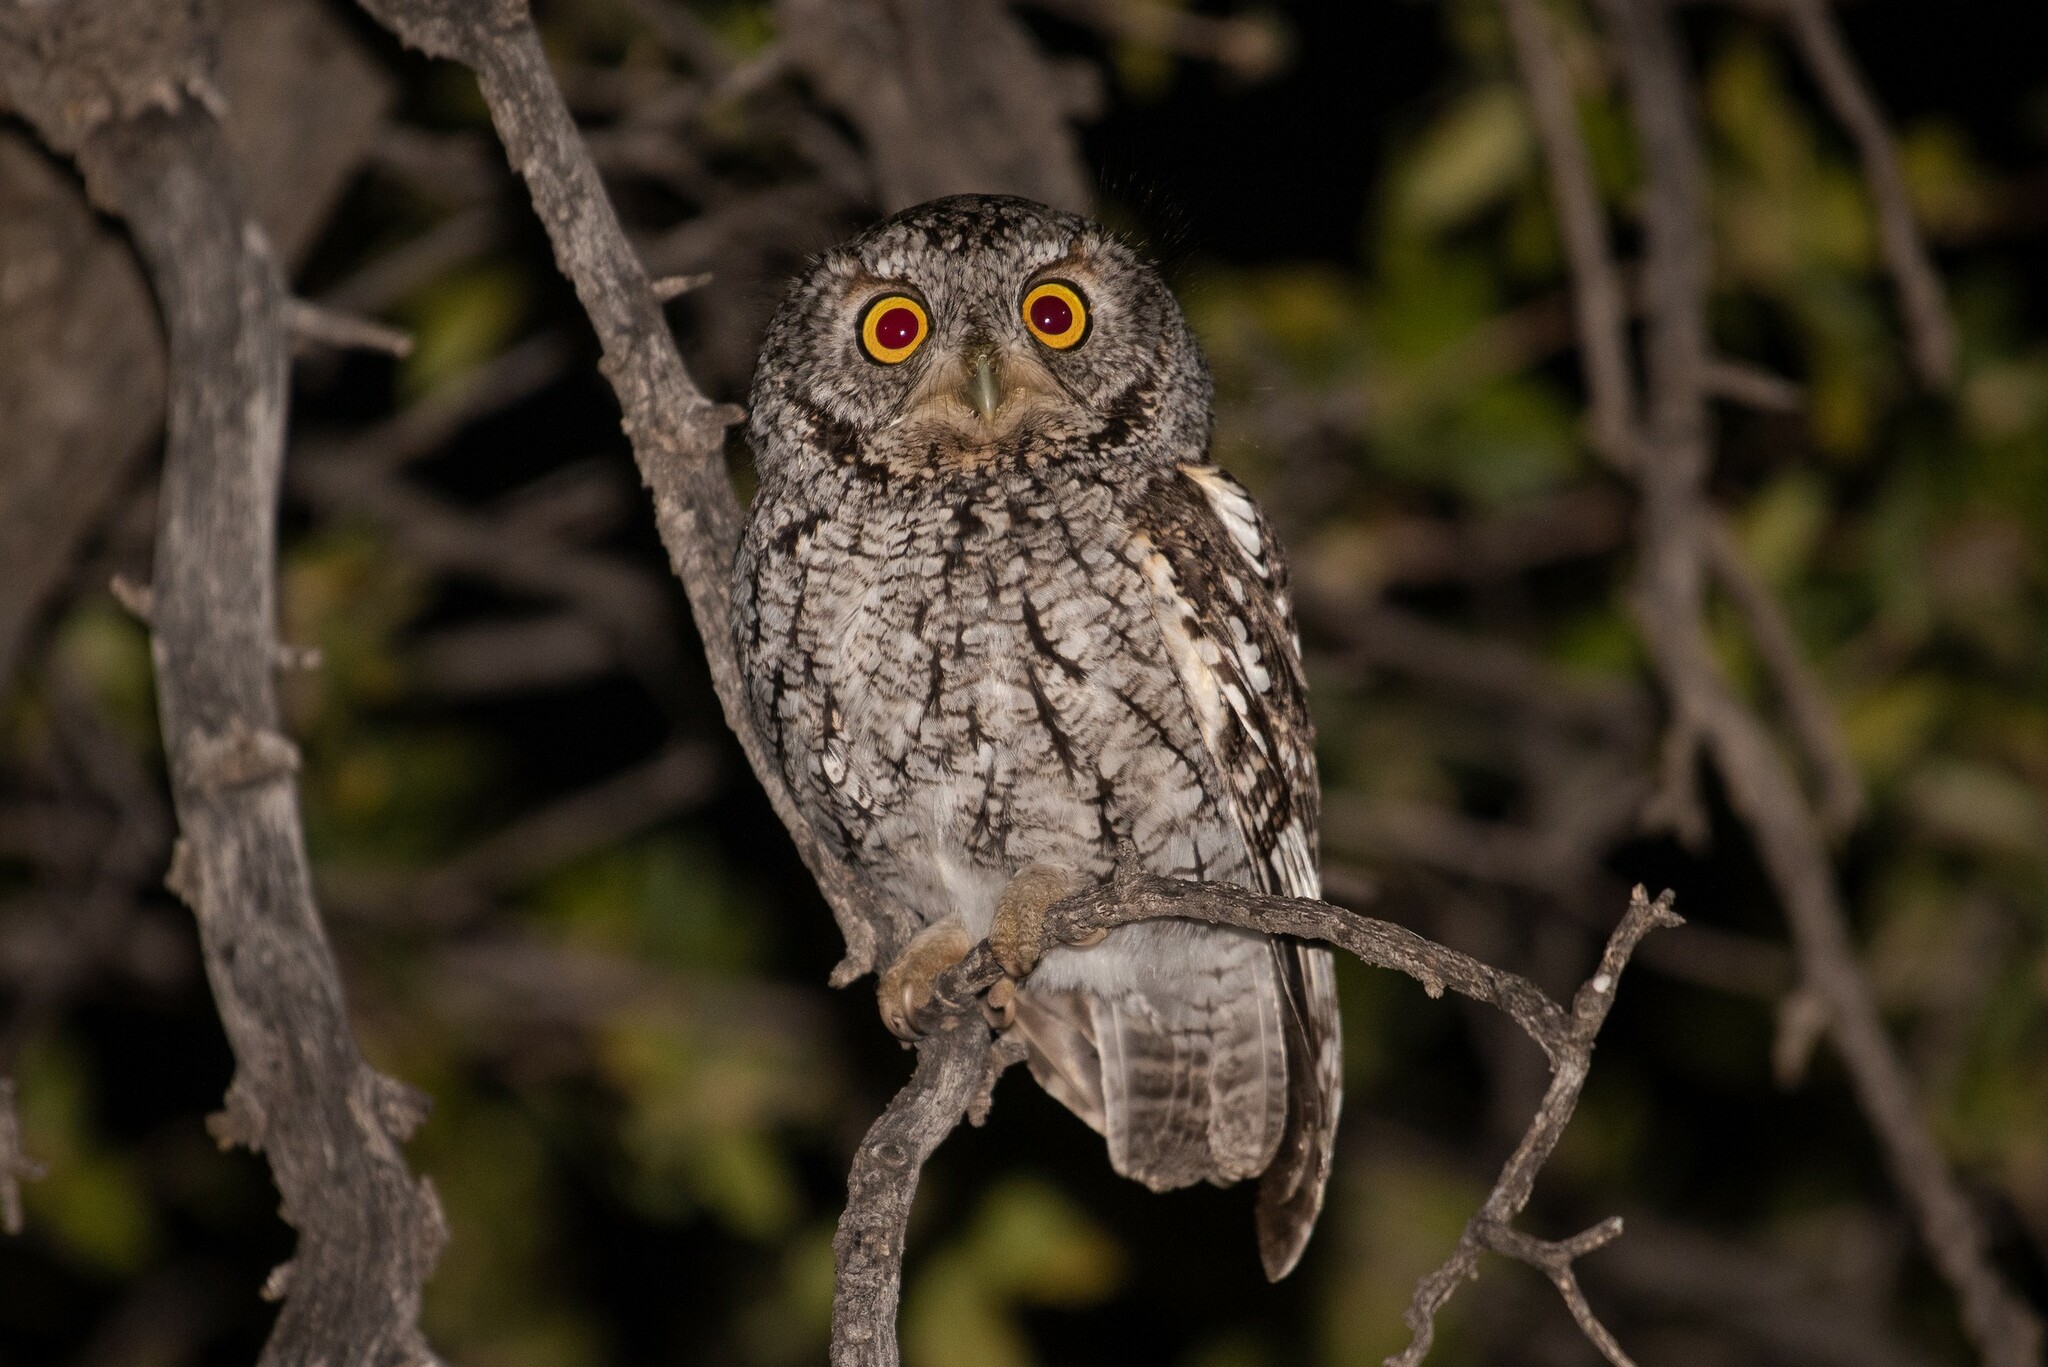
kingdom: Animalia
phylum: Chordata
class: Aves
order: Strigiformes
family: Strigidae
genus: Megascops
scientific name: Megascops trichopsis
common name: Whiskered screech-owl
